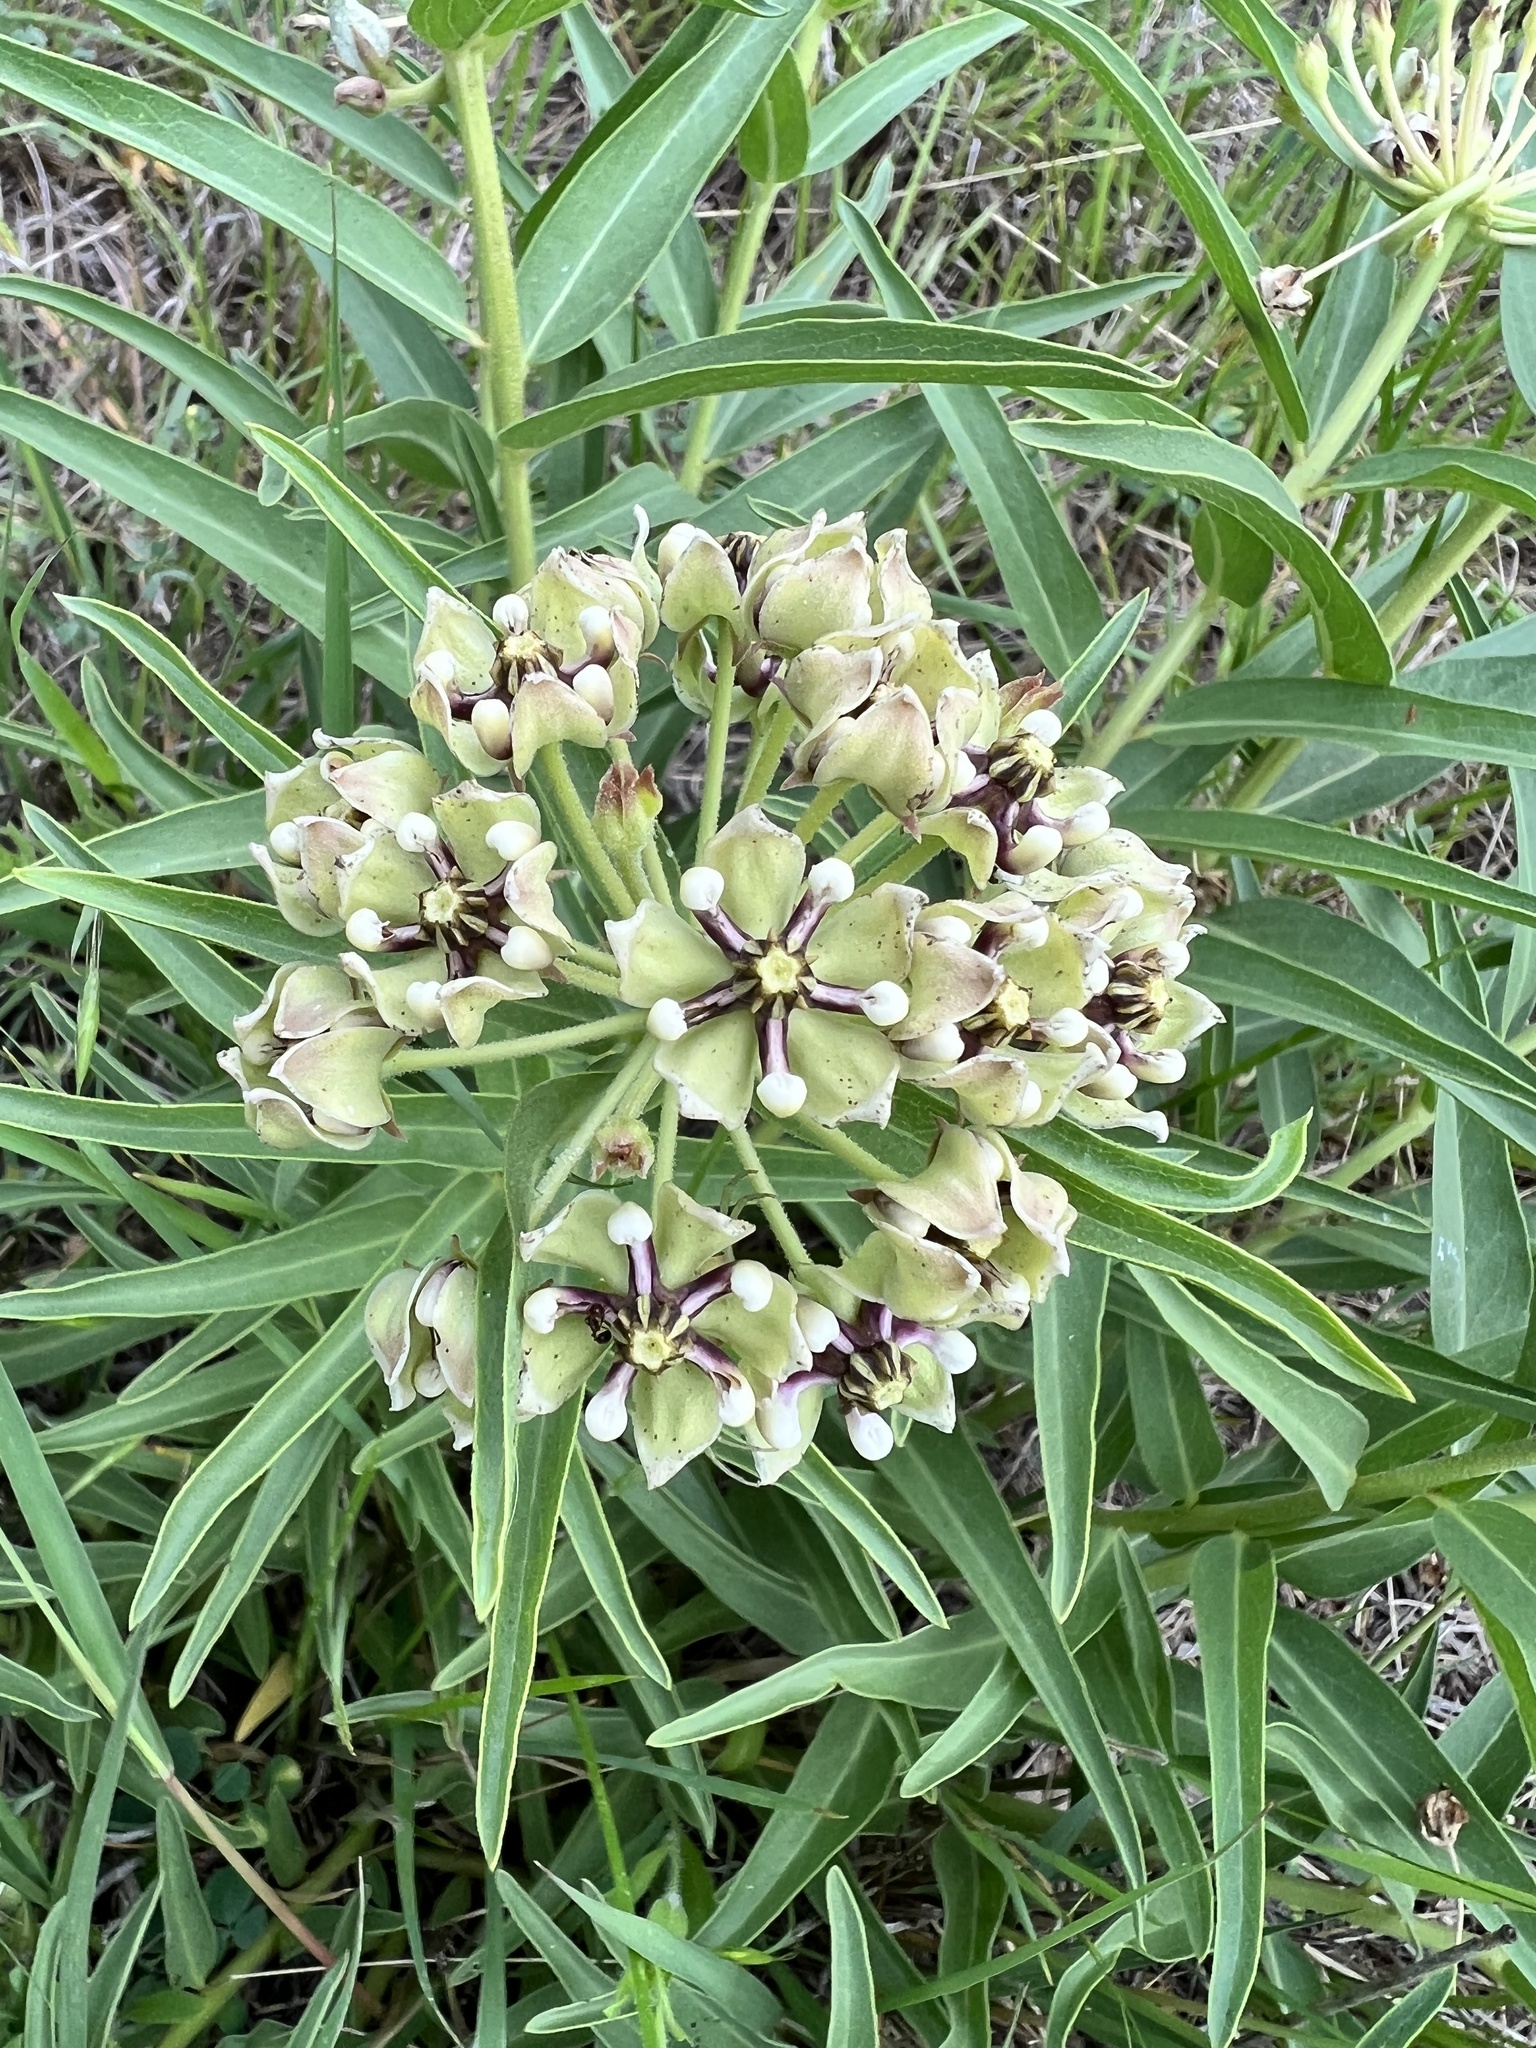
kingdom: Plantae
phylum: Tracheophyta
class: Magnoliopsida
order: Gentianales
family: Apocynaceae
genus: Asclepias
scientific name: Asclepias asperula
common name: Antelope horns
